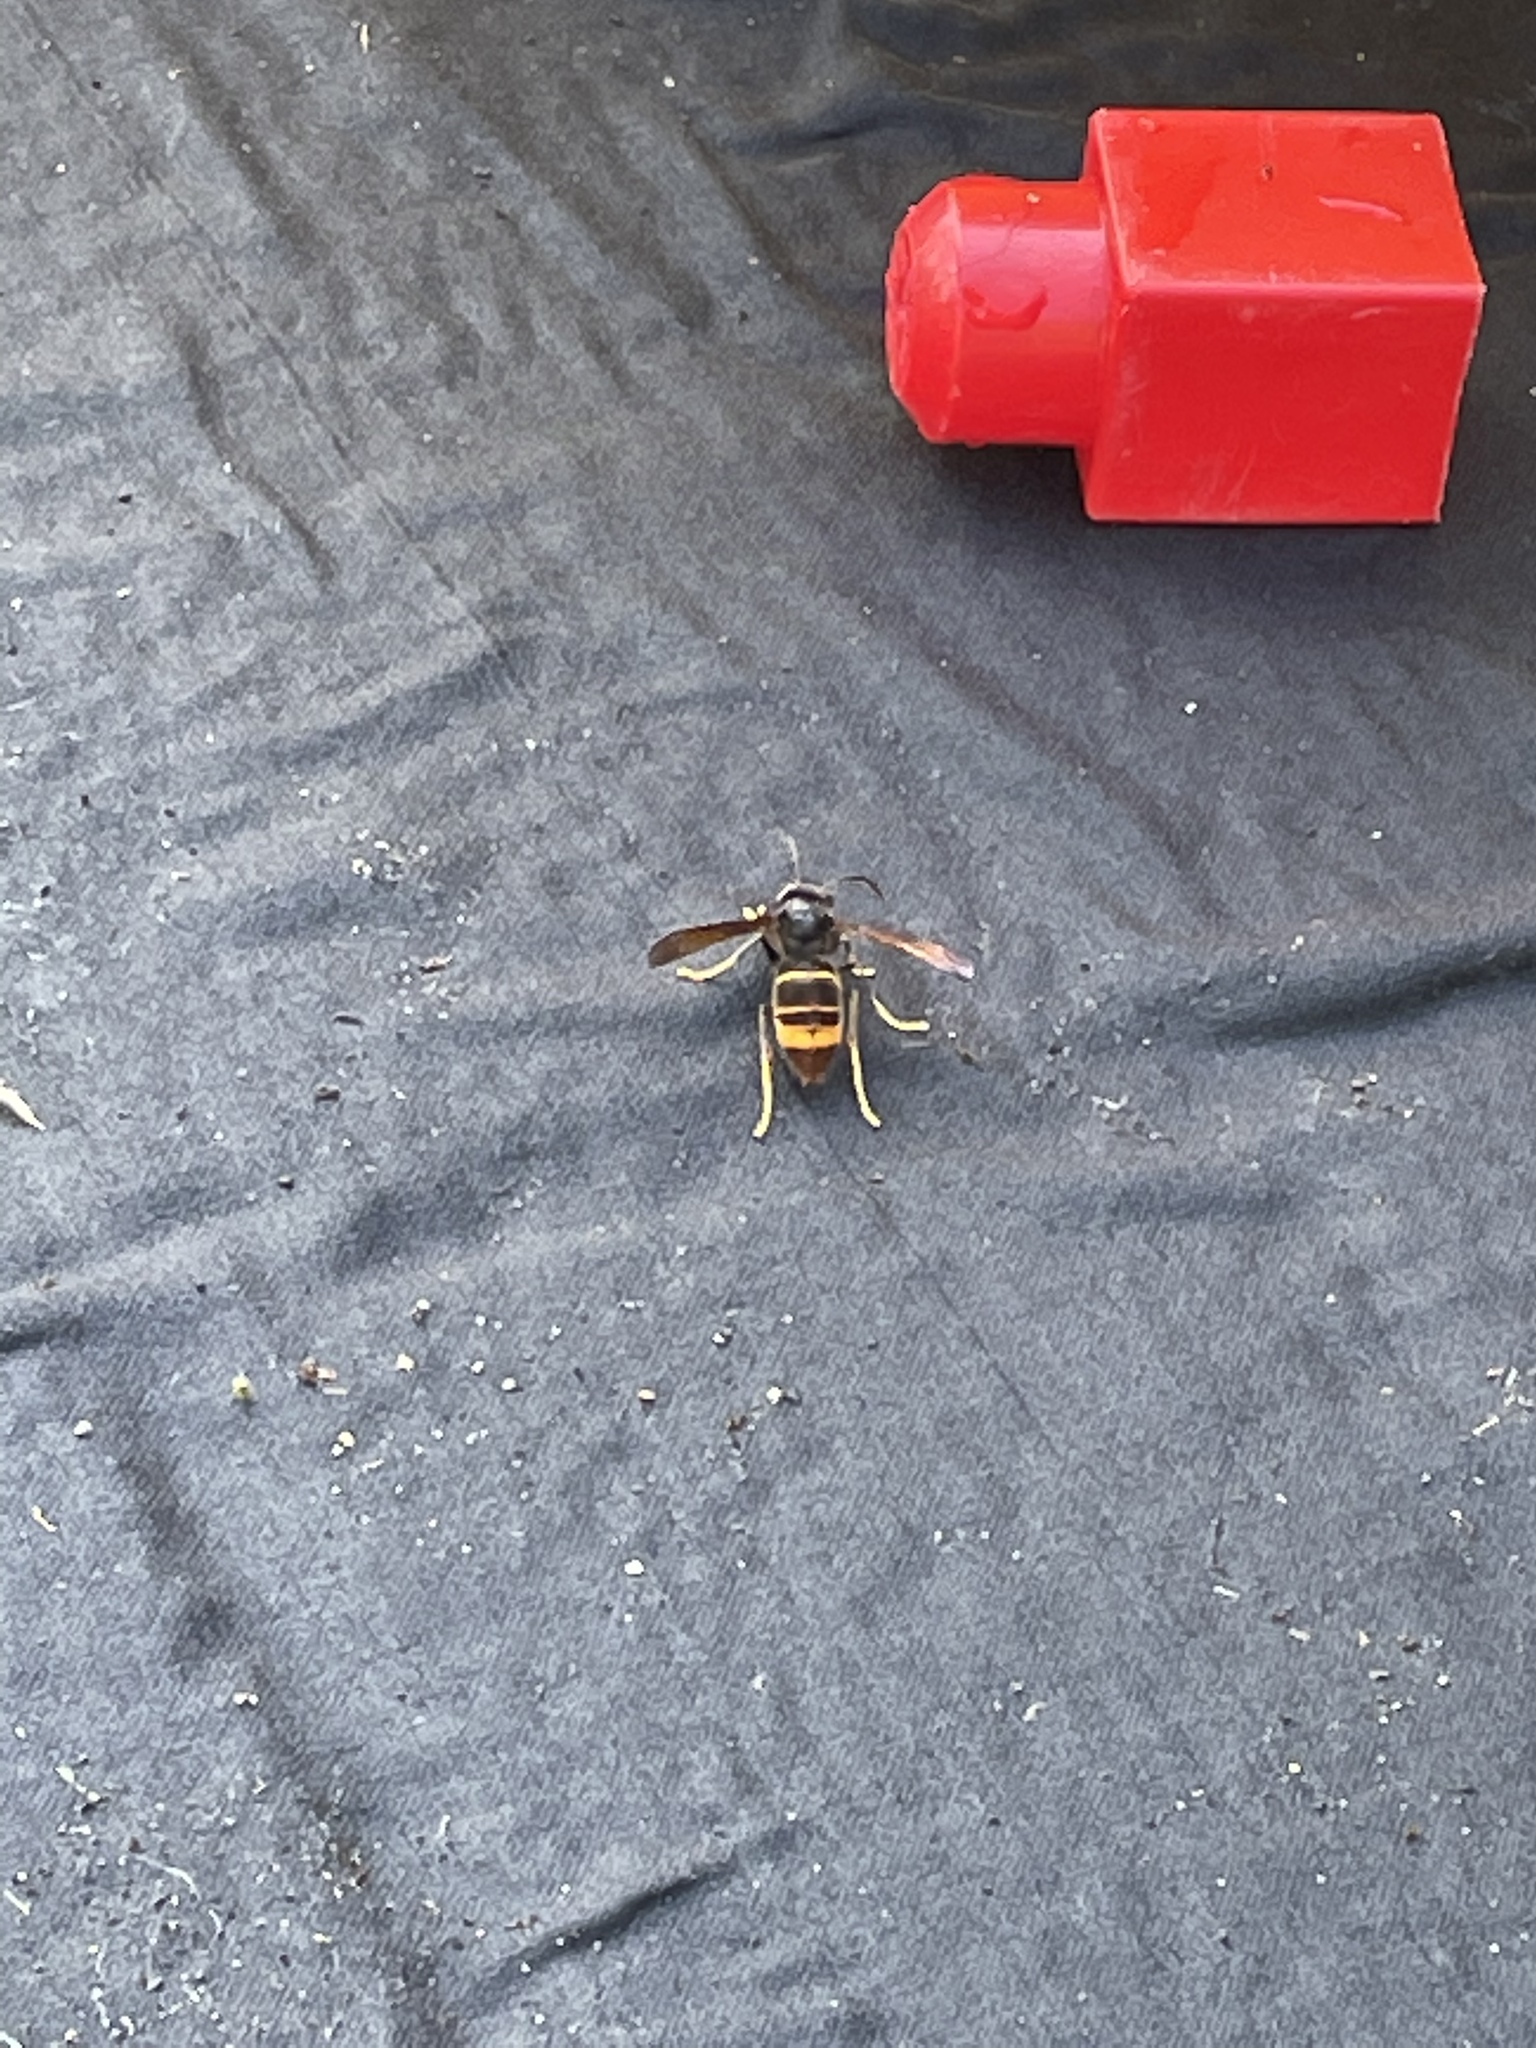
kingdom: Animalia
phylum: Arthropoda
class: Insecta
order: Hymenoptera
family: Vespidae
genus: Vespa
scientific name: Vespa velutina
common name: Asian hornet
